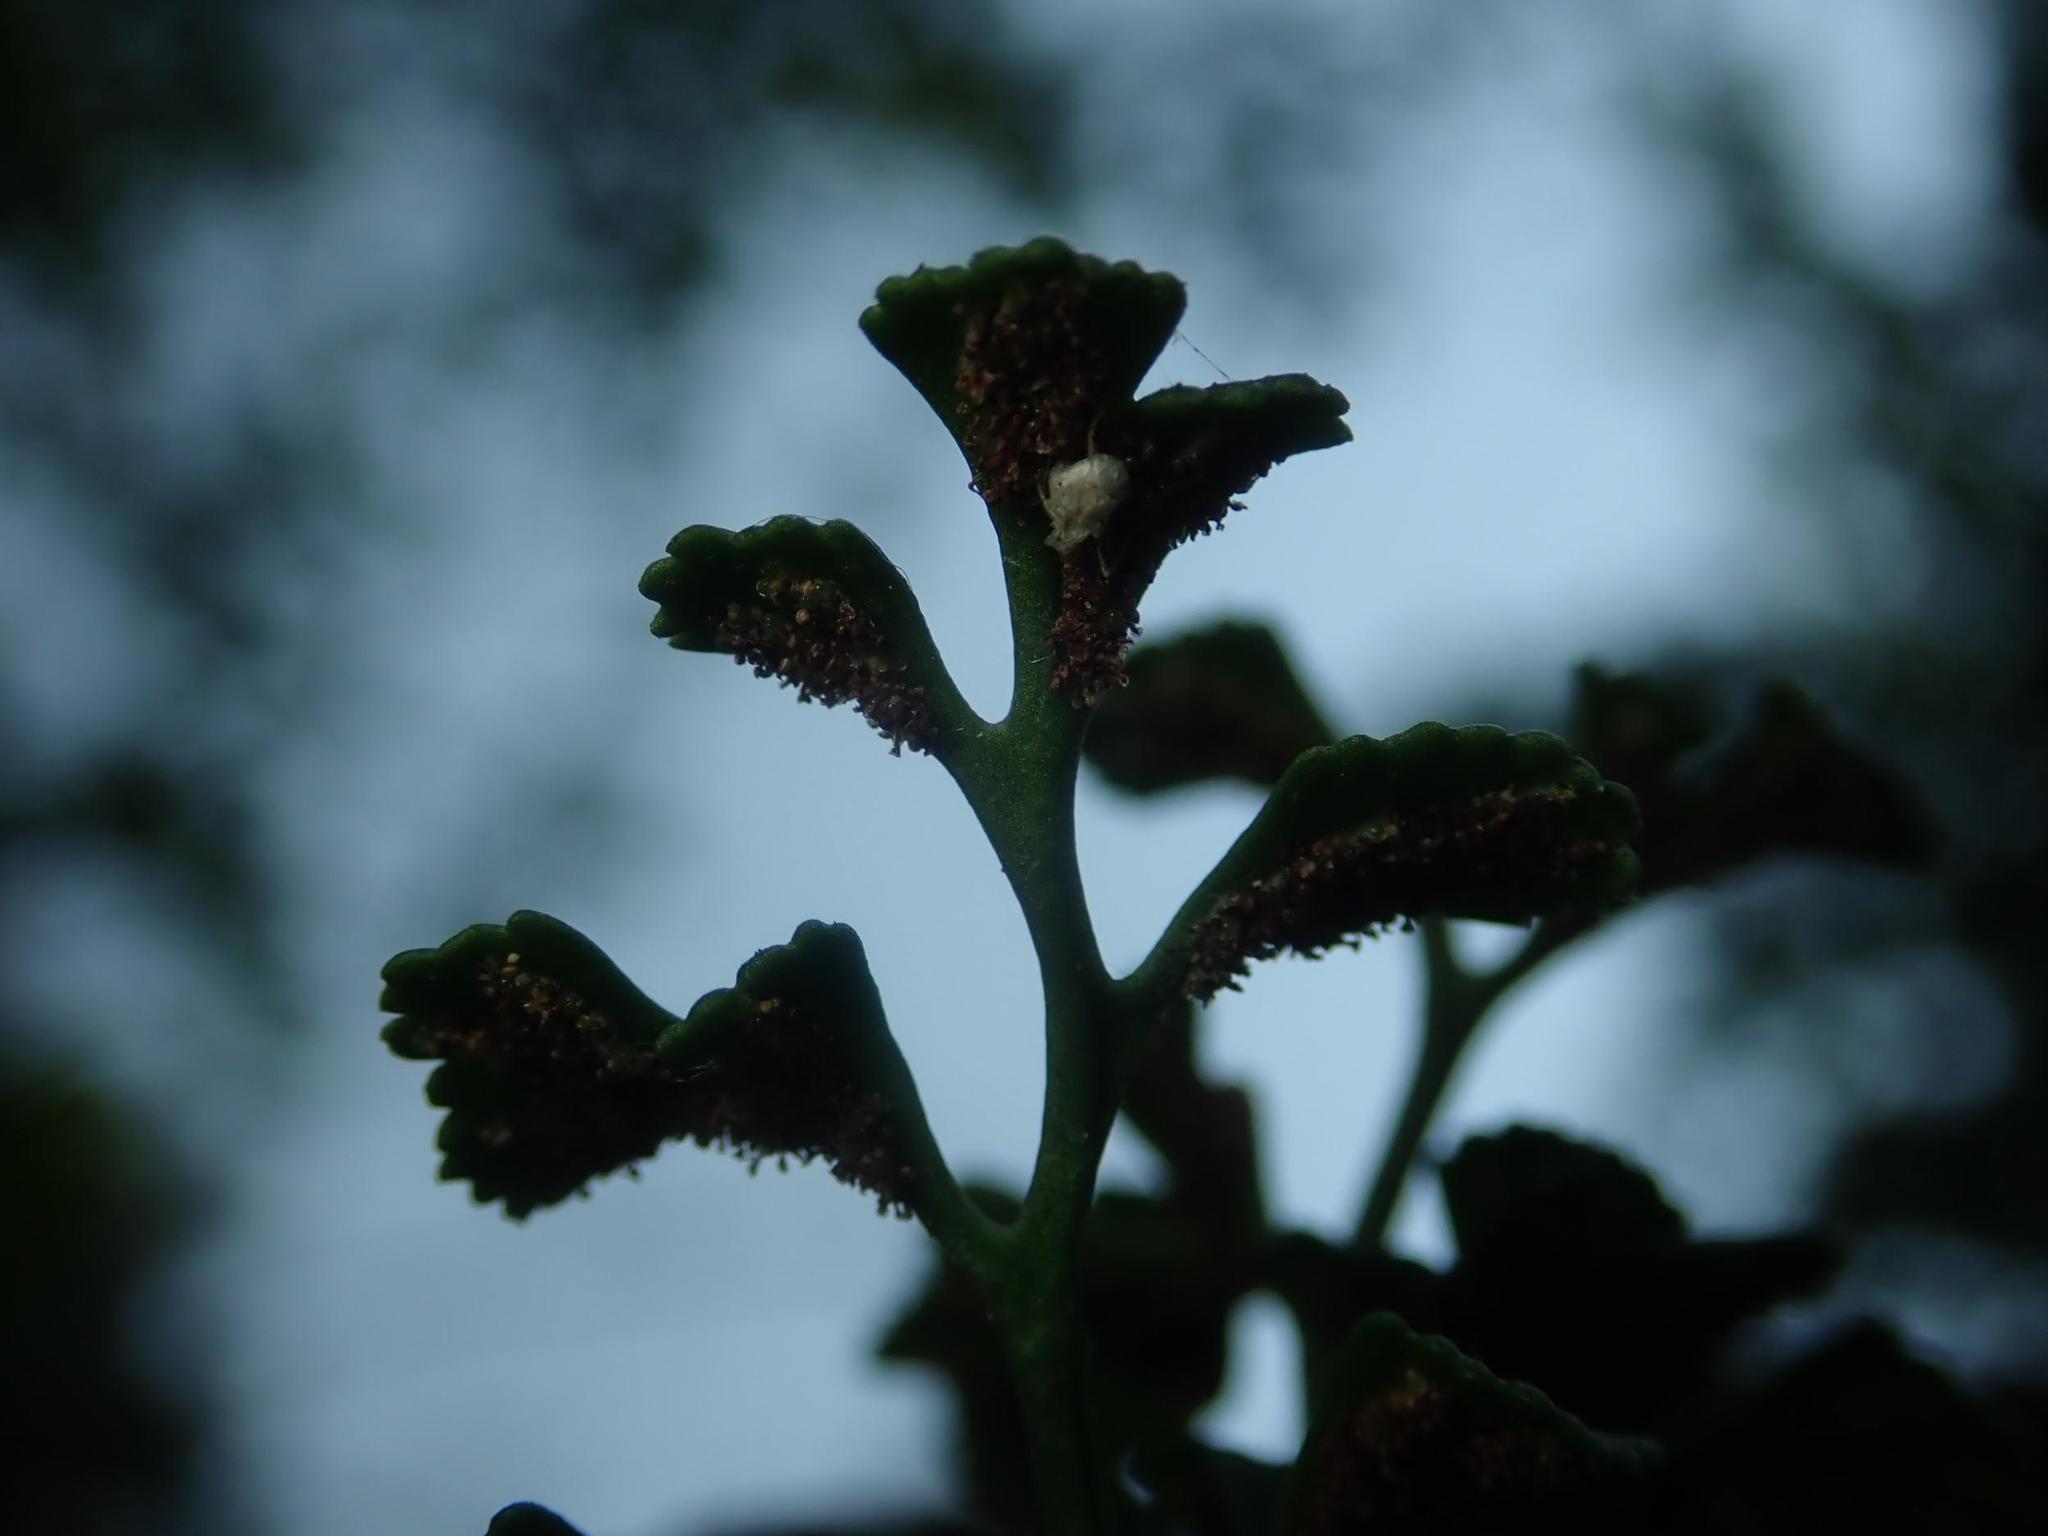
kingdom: Plantae
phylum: Tracheophyta
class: Polypodiopsida
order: Polypodiales
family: Aspleniaceae
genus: Asplenium
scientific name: Asplenium ruta-muraria
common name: Wall-rue
